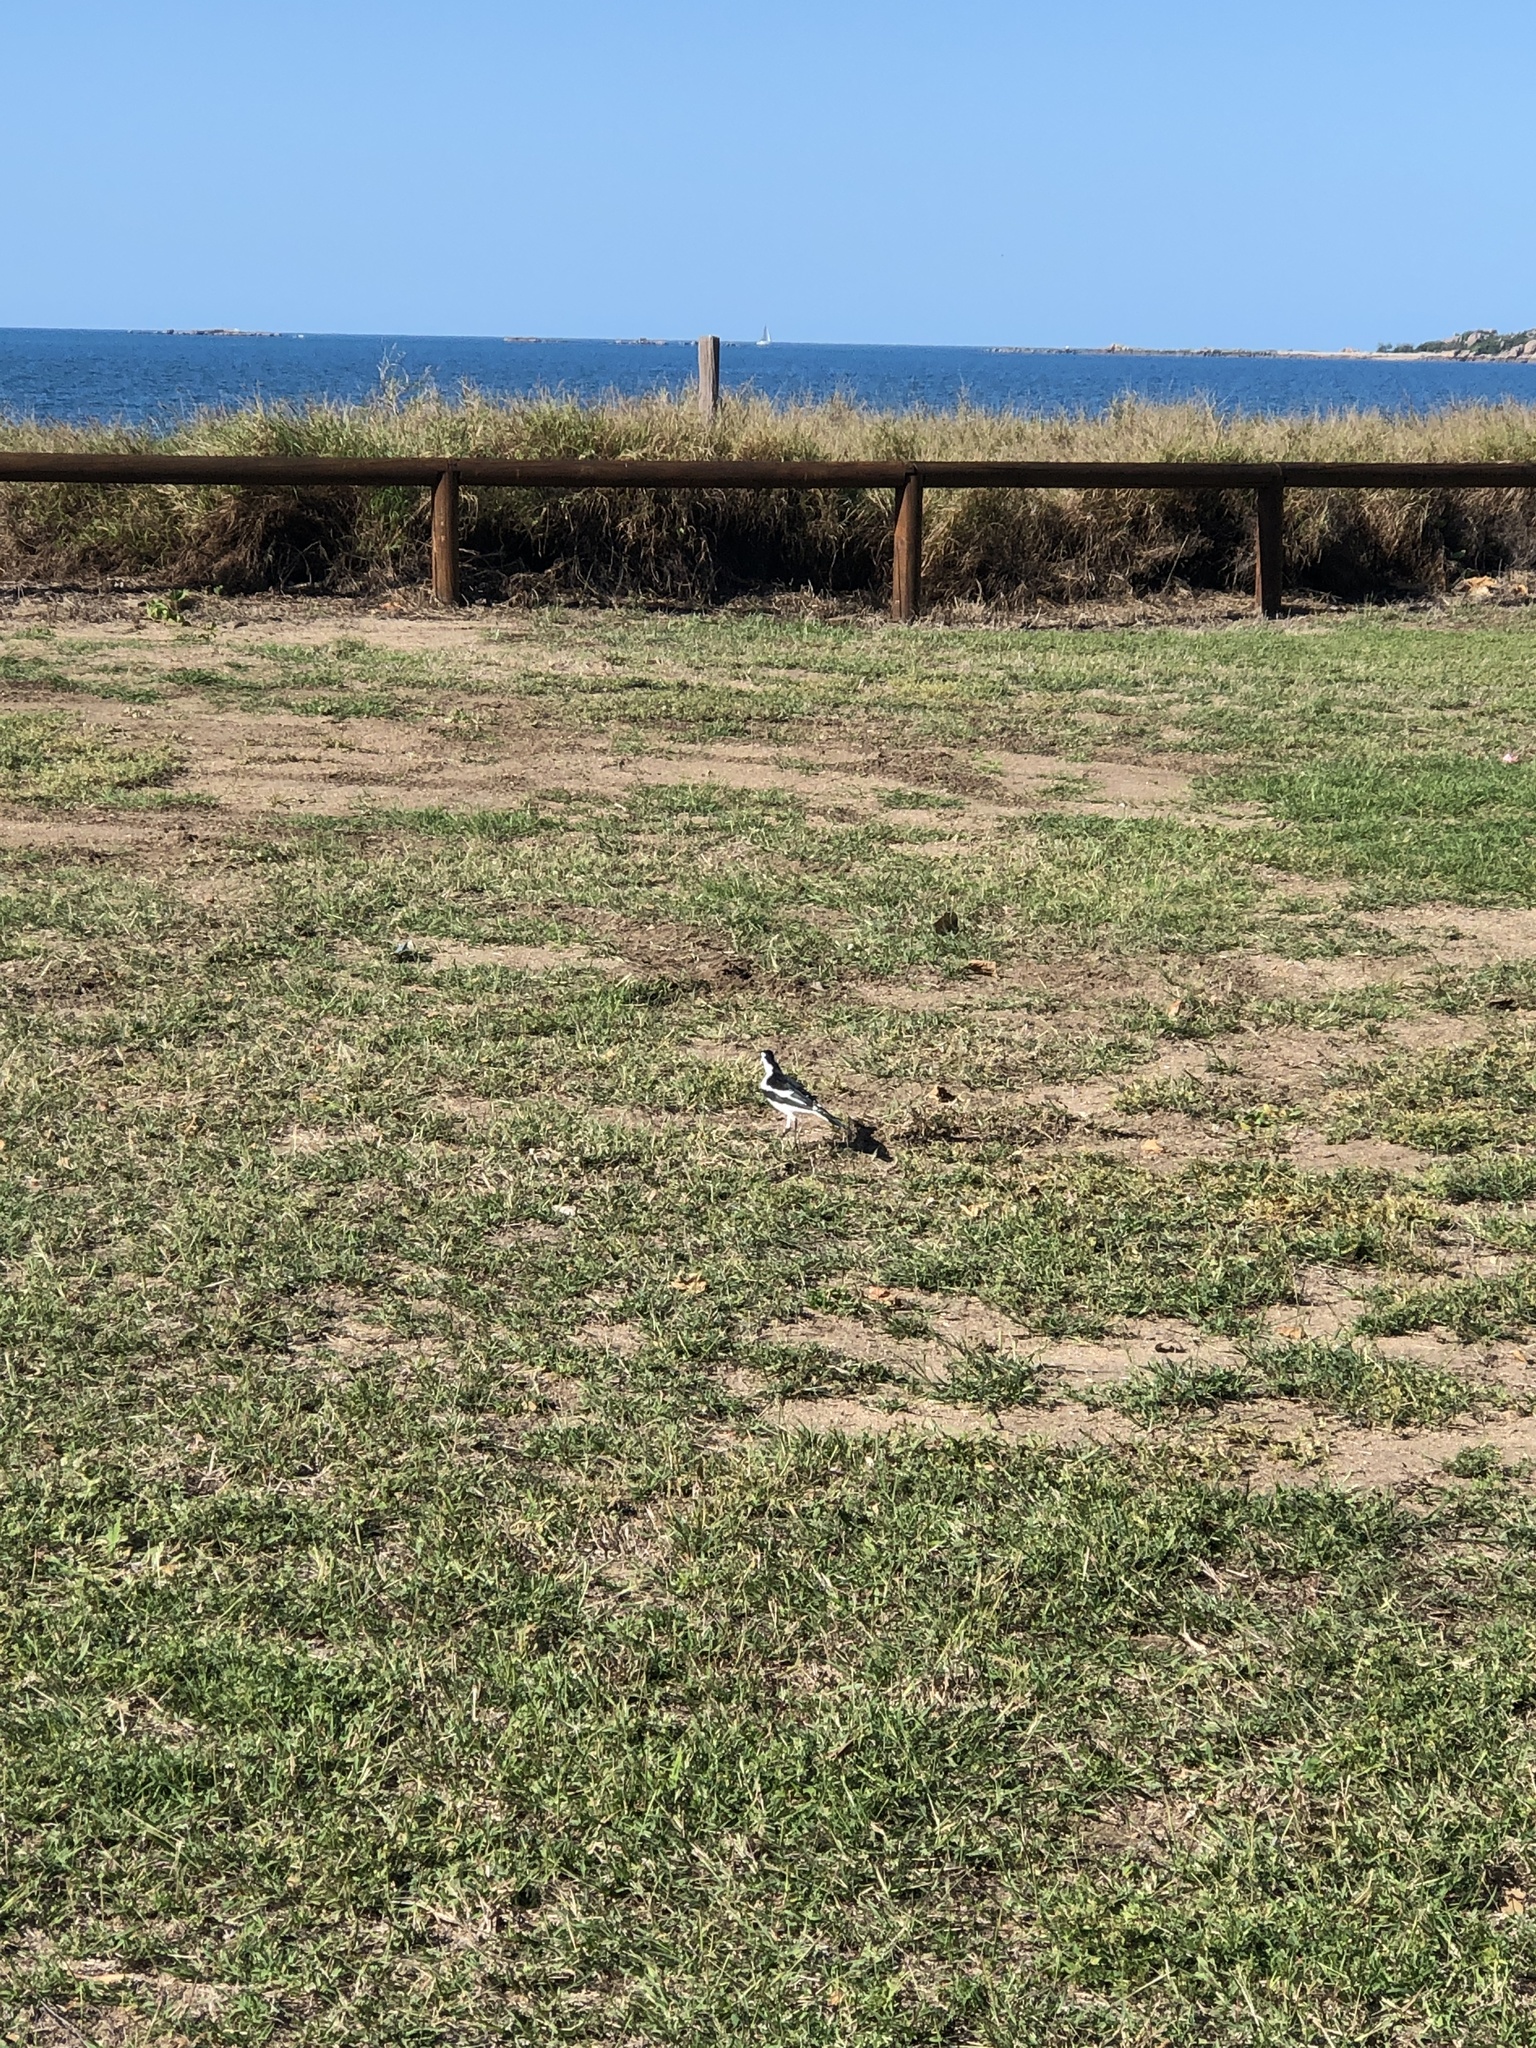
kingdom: Animalia
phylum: Chordata
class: Aves
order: Passeriformes
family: Monarchidae
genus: Grallina
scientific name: Grallina cyanoleuca
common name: Magpie-lark
